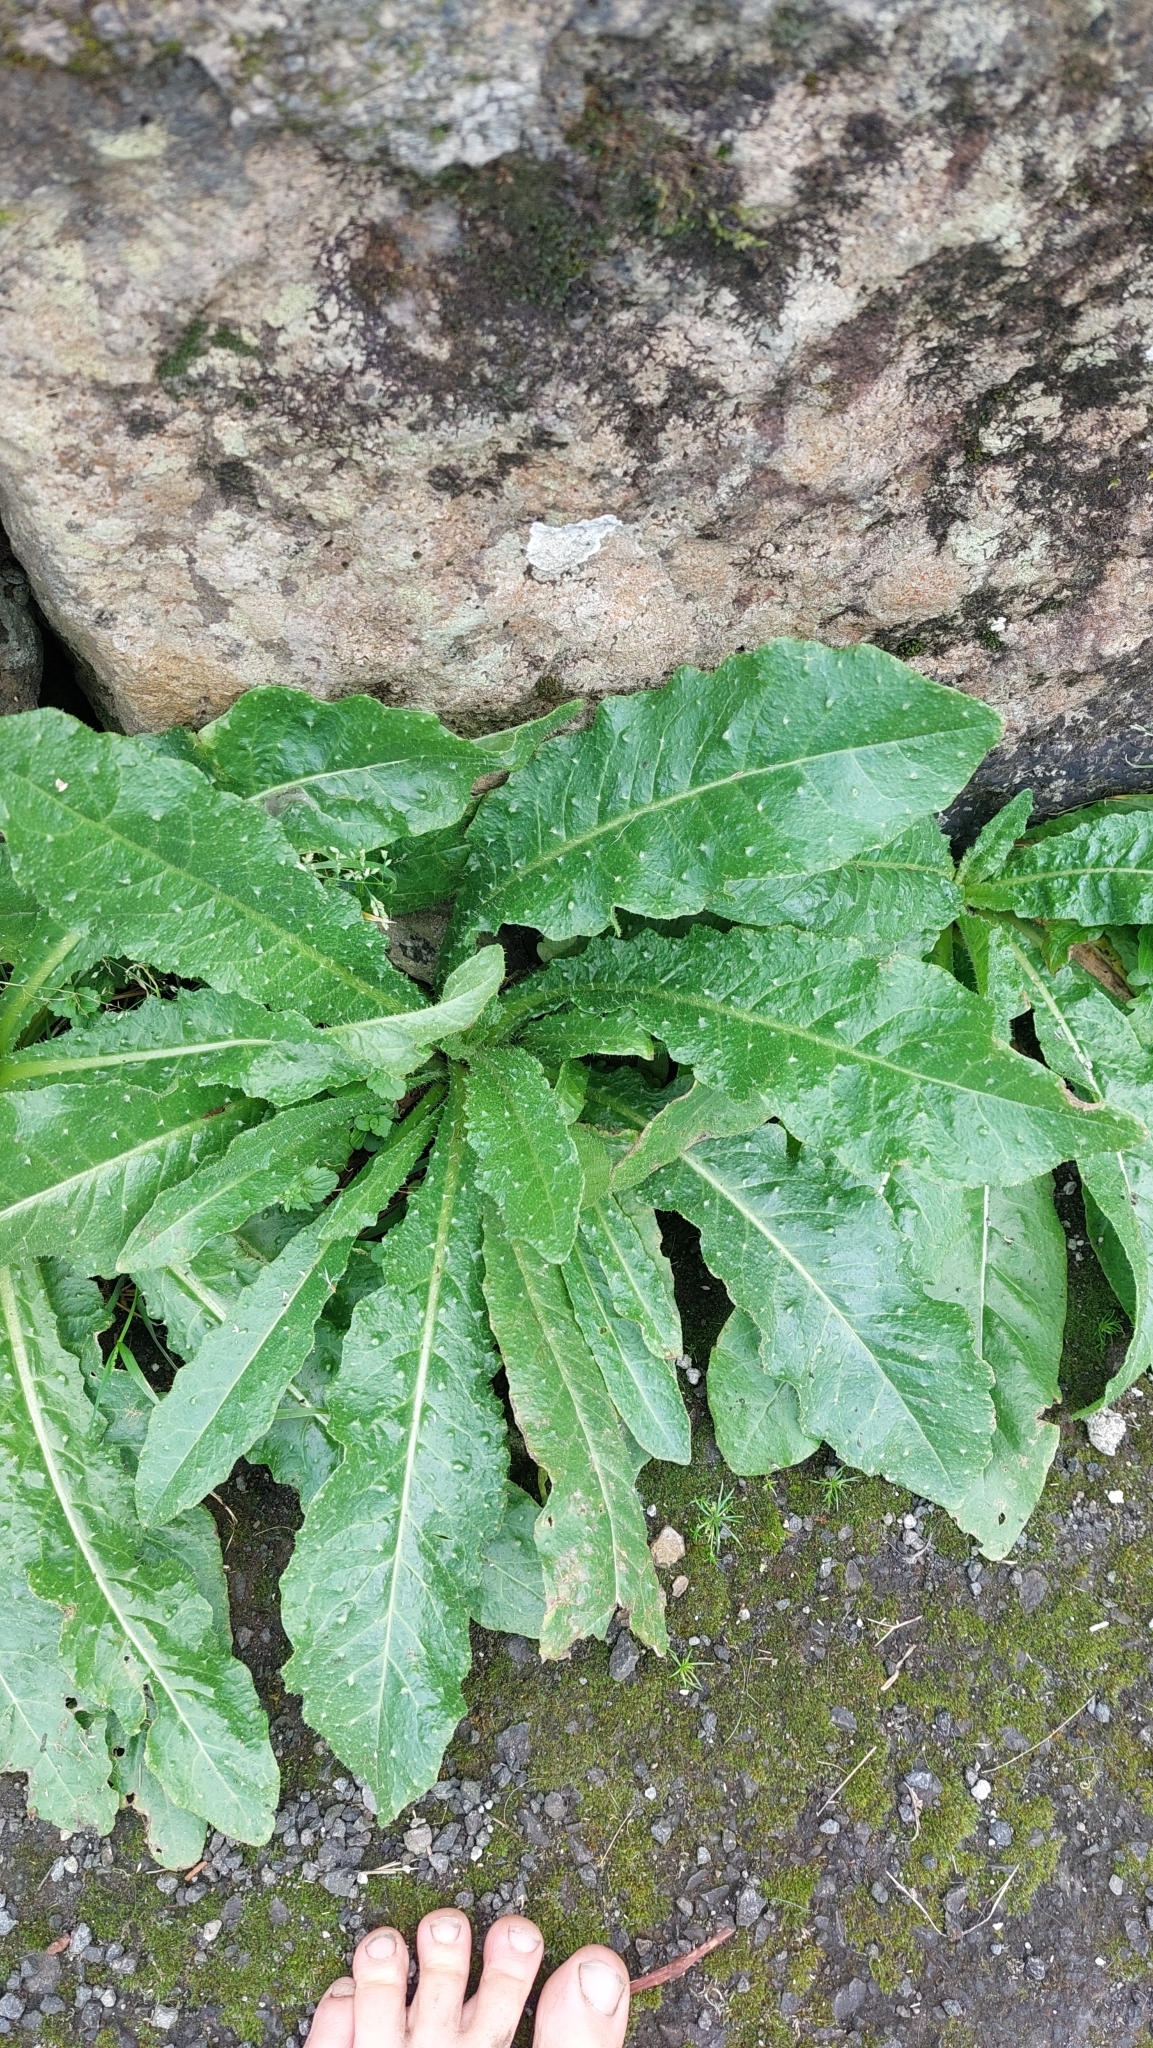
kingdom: Plantae
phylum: Tracheophyta
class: Magnoliopsida
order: Asterales
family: Asteraceae
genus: Helminthotheca
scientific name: Helminthotheca echioides
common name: Ox-tongue
